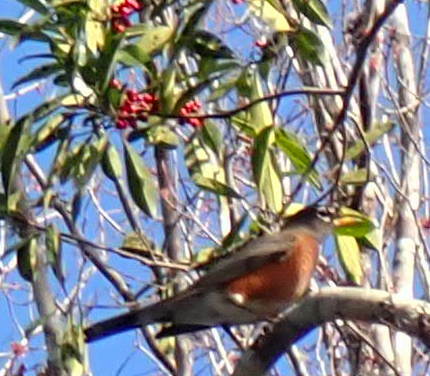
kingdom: Animalia
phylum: Chordata
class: Aves
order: Passeriformes
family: Turdidae
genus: Turdus
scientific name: Turdus migratorius
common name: American robin
